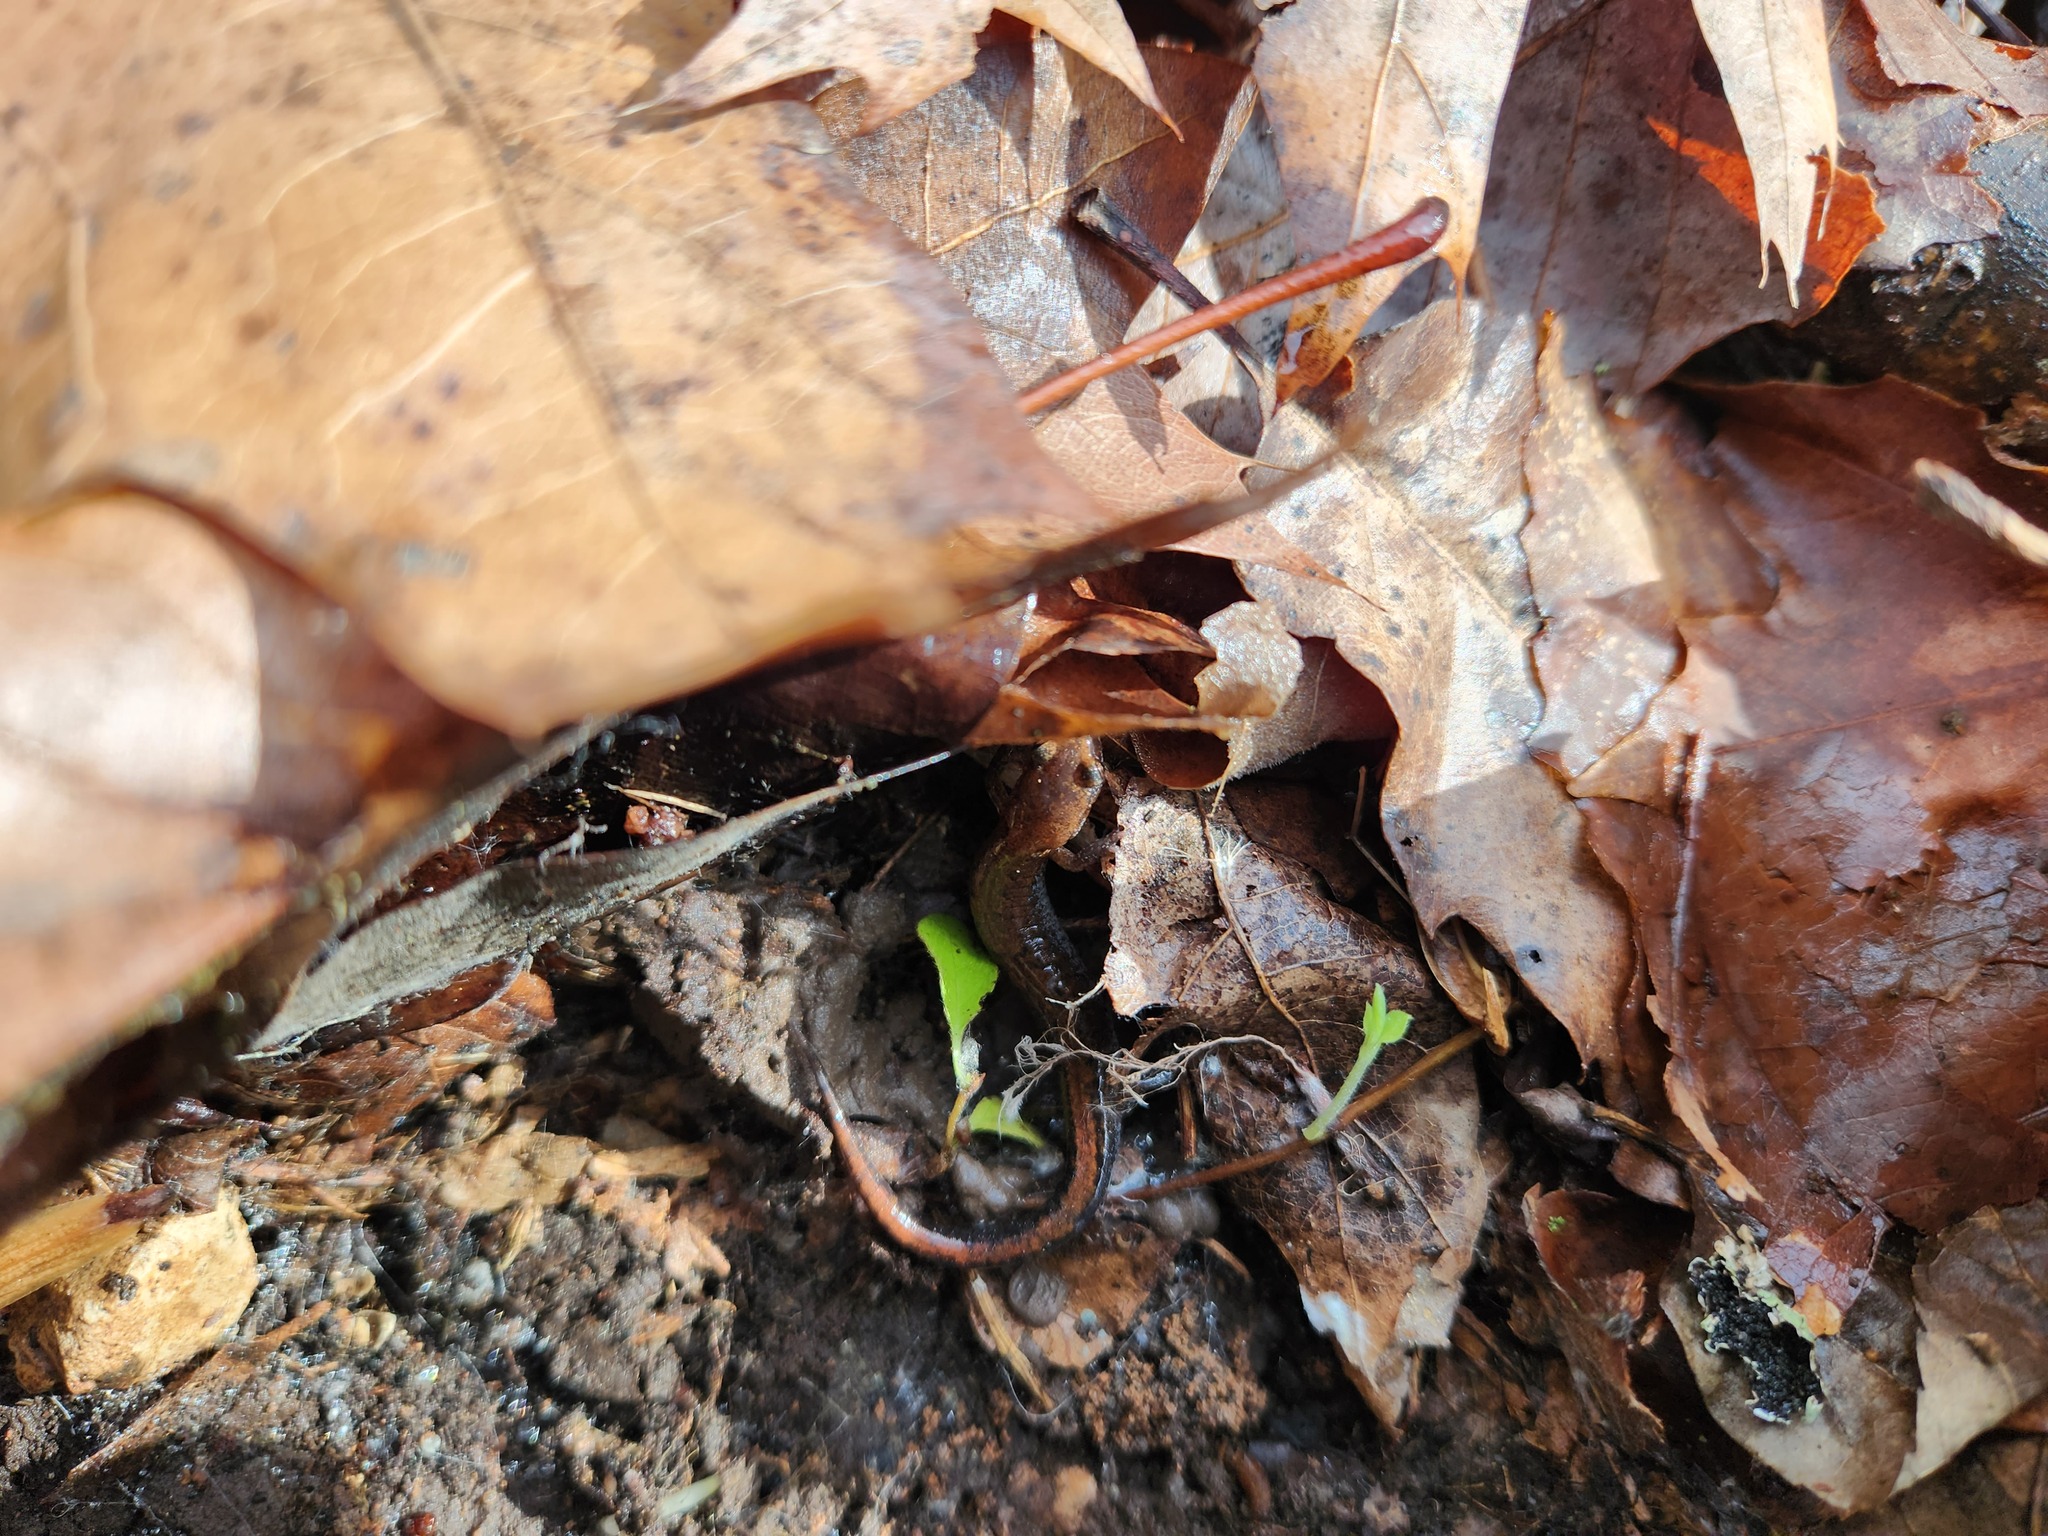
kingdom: Animalia
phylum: Chordata
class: Amphibia
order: Caudata
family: Plethodontidae
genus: Plethodon
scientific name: Plethodon dorsalis
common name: Northern zigzag salamander
